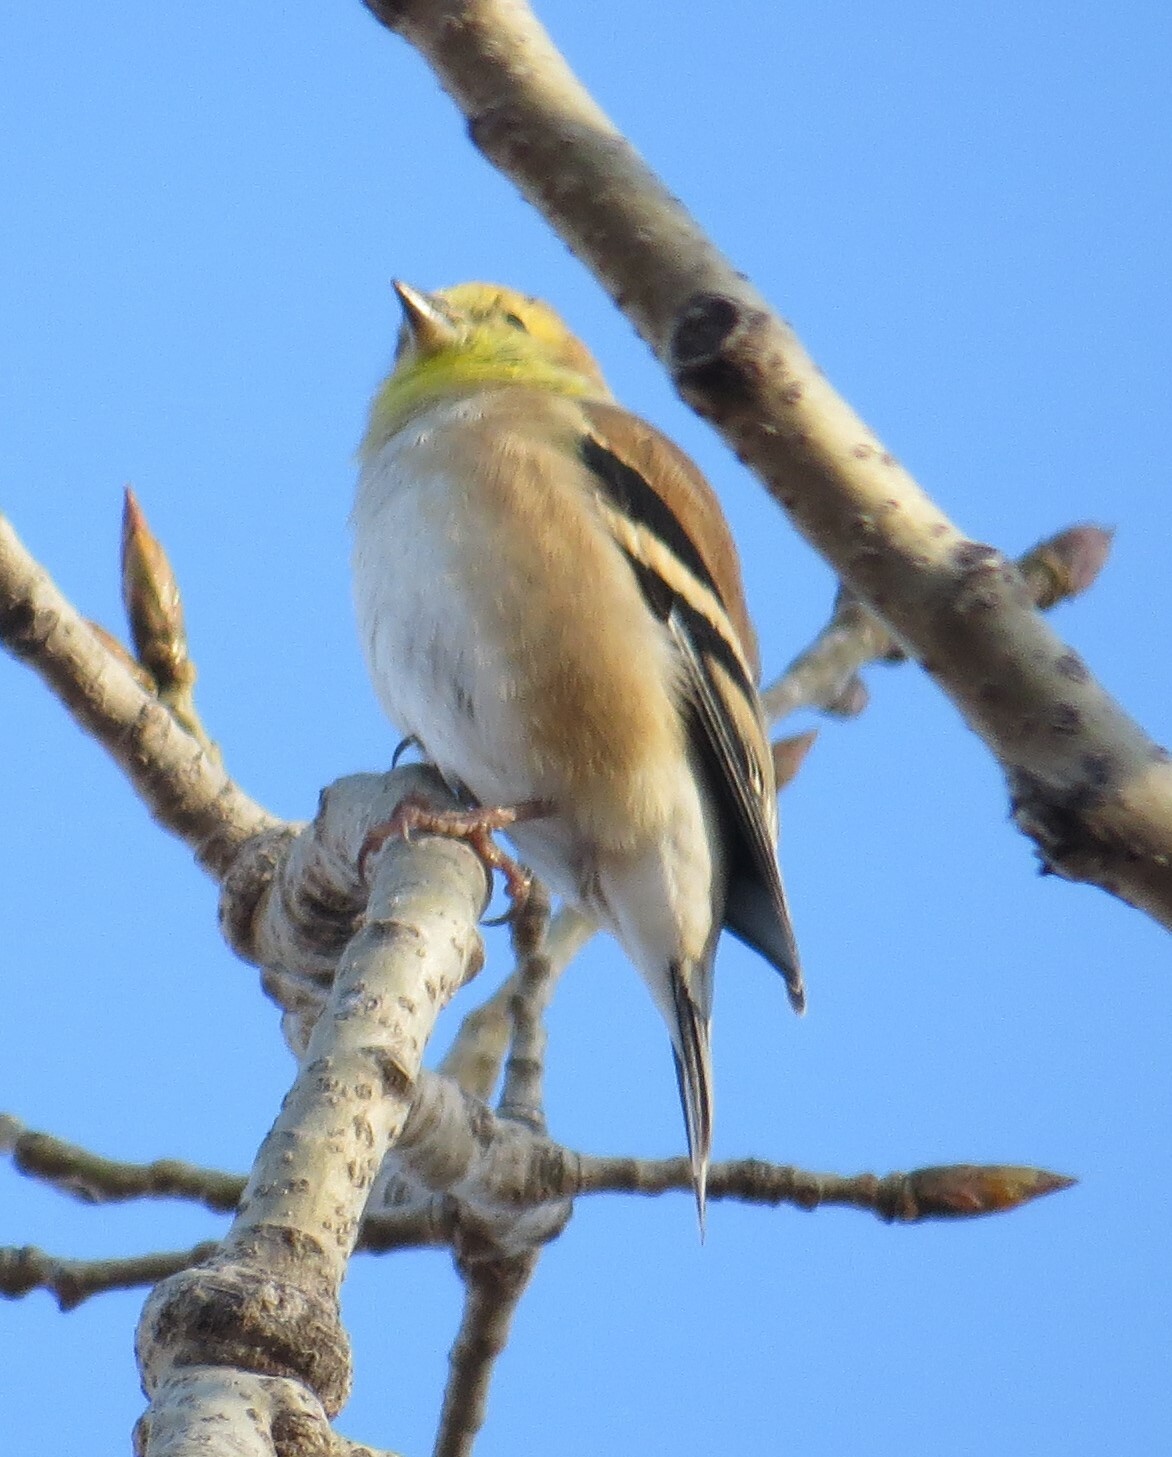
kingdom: Animalia
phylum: Chordata
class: Aves
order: Passeriformes
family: Fringillidae
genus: Spinus
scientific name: Spinus tristis
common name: American goldfinch
